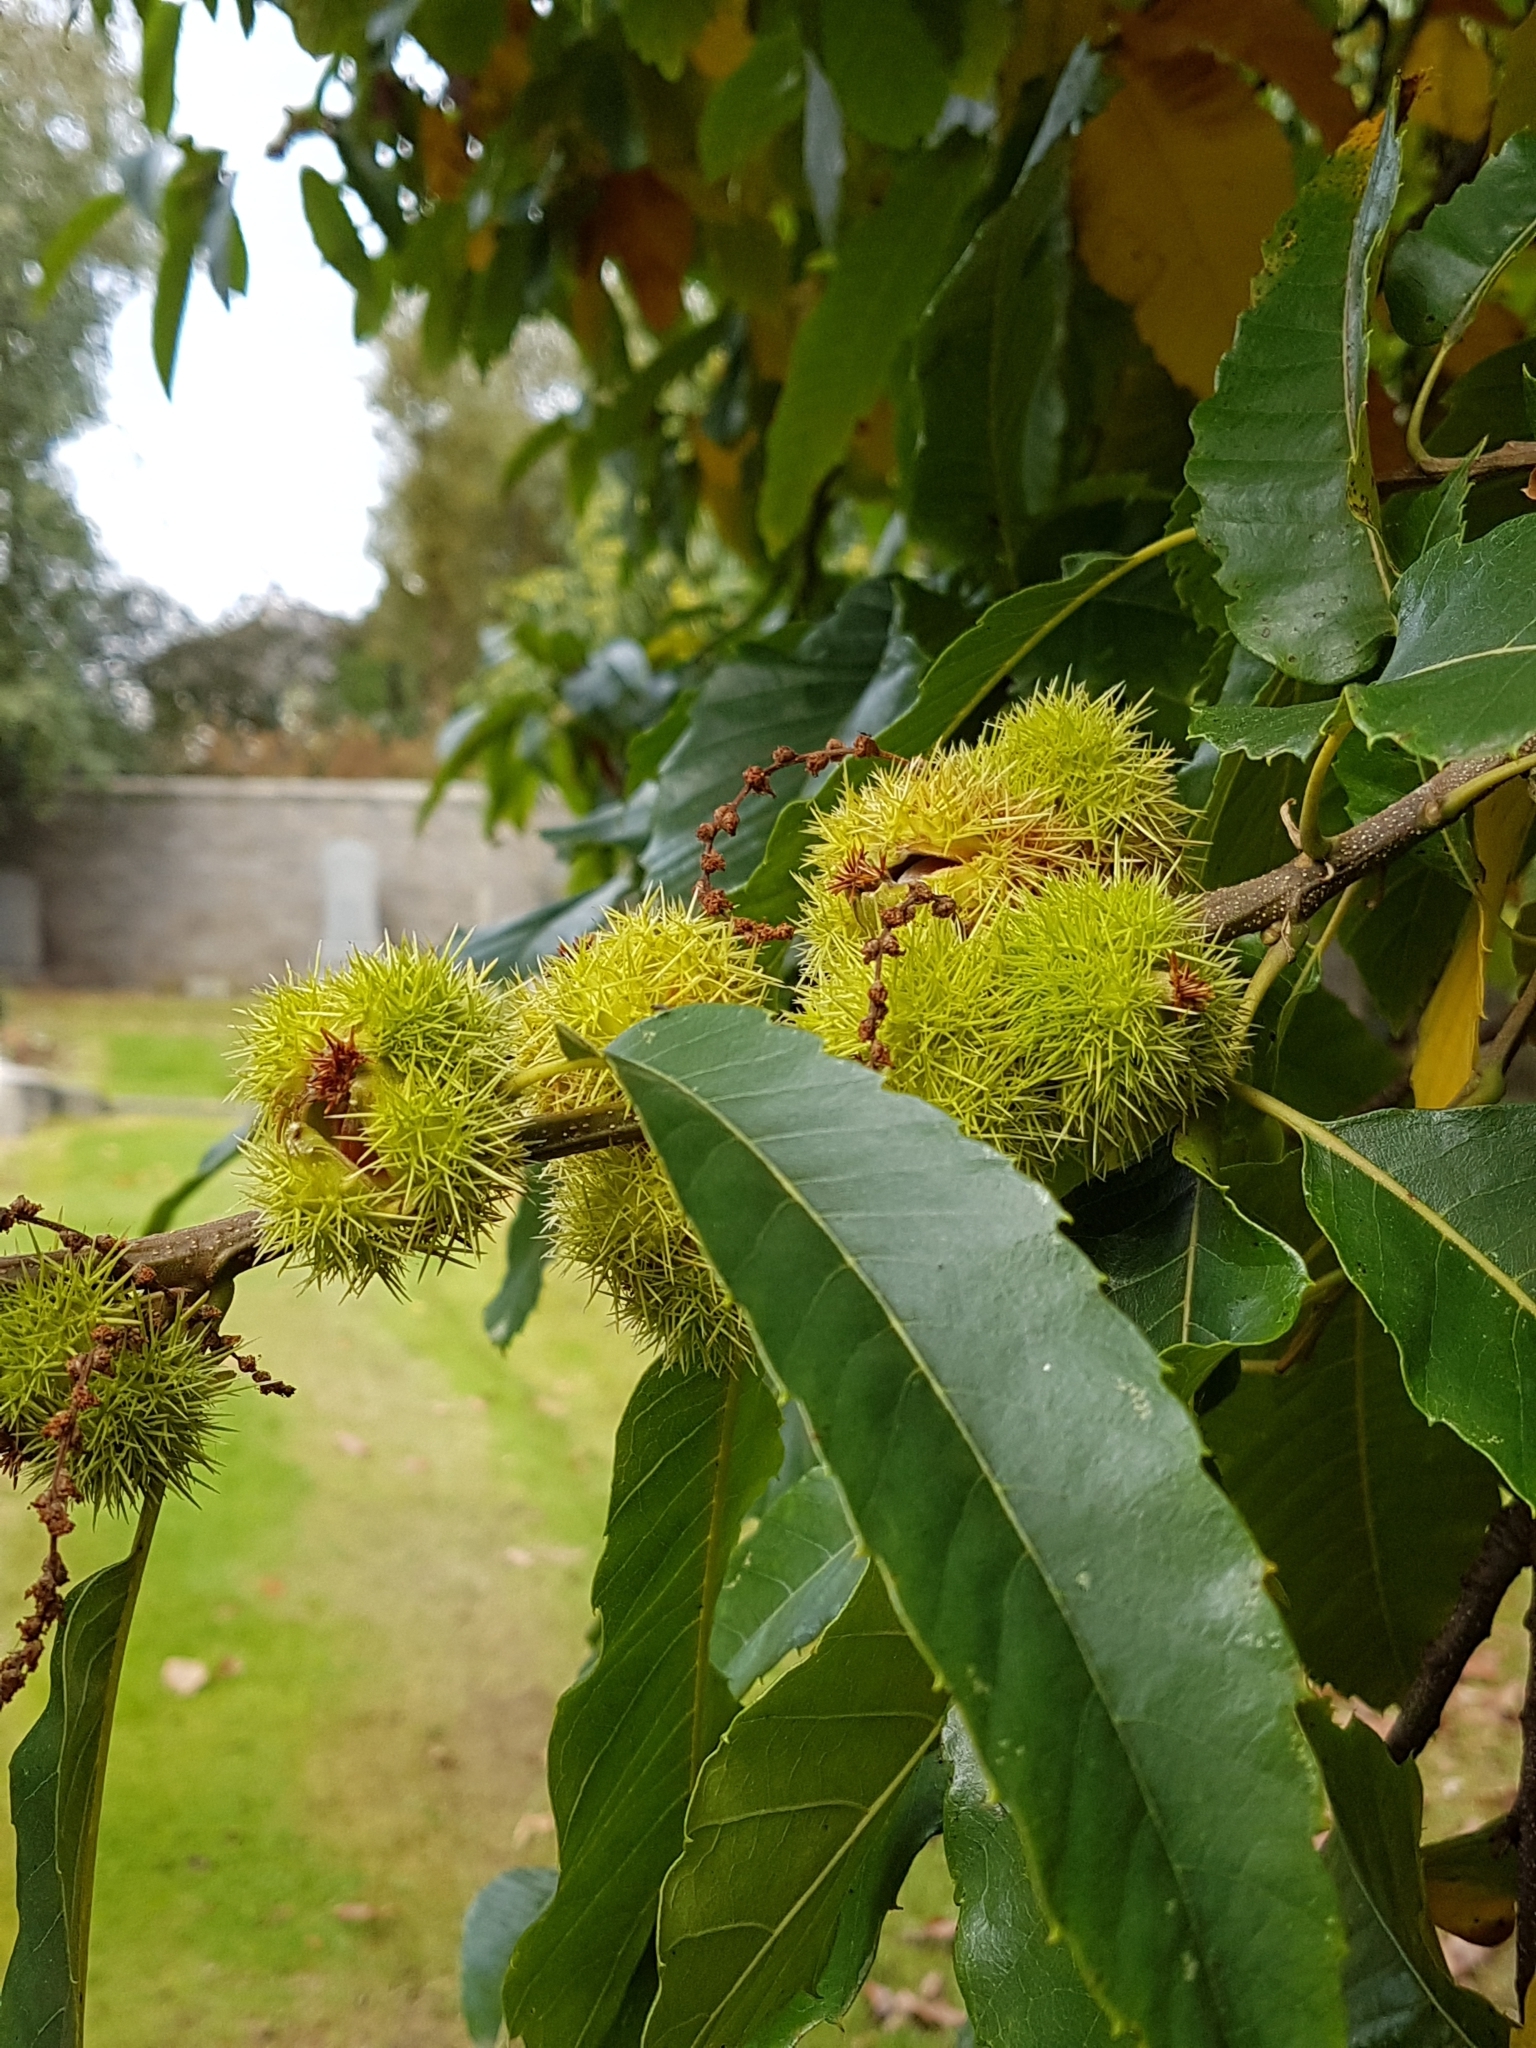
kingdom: Plantae
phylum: Tracheophyta
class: Magnoliopsida
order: Fagales
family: Fagaceae
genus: Castanea
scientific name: Castanea sativa
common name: Sweet chestnut
